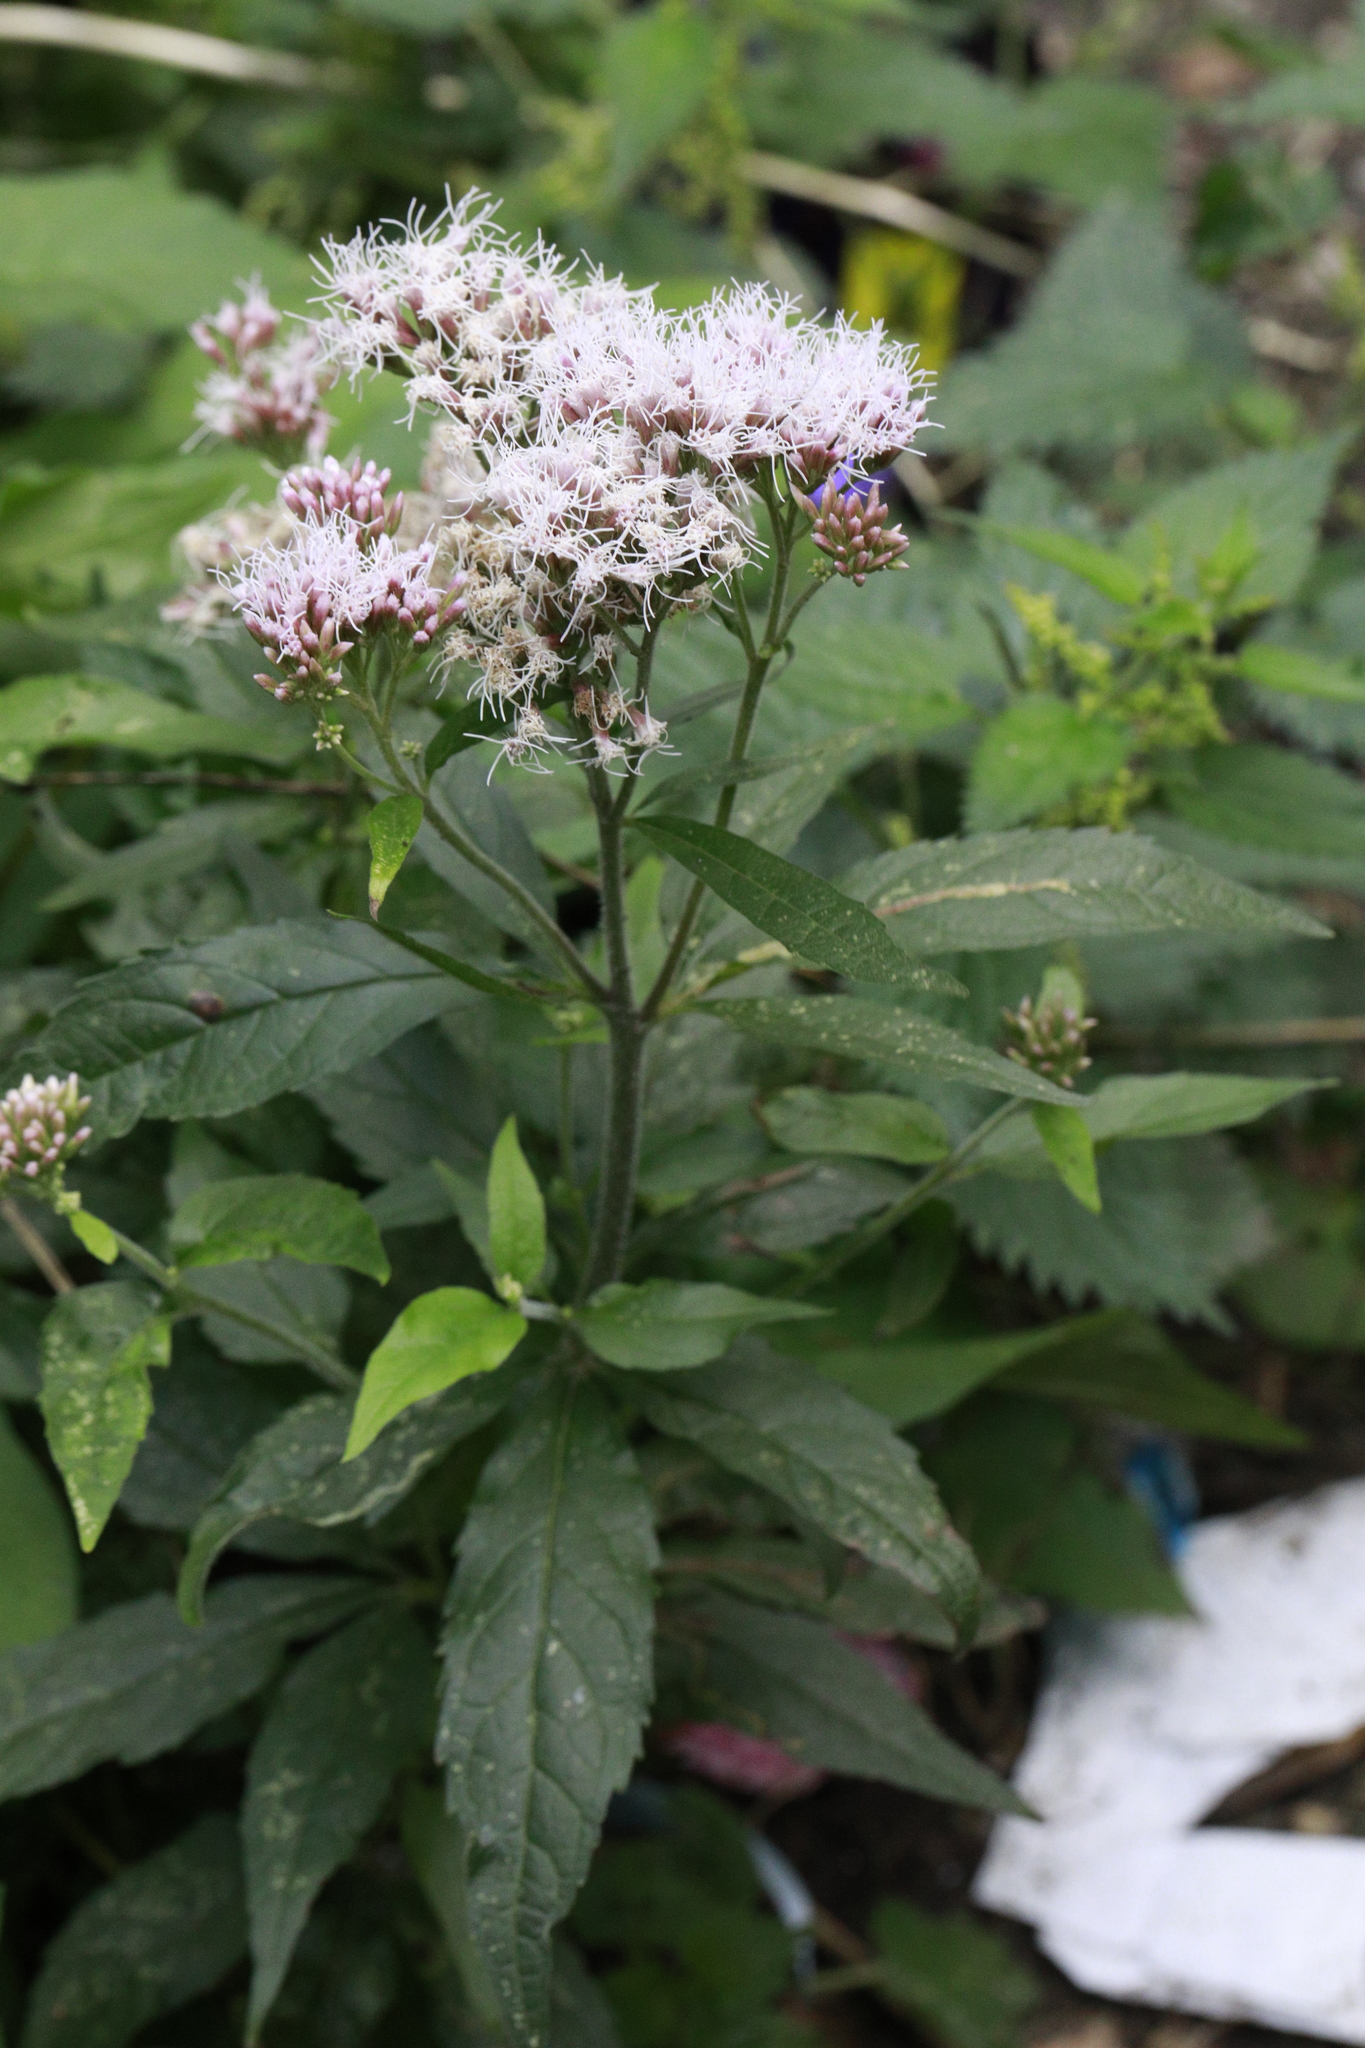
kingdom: Plantae
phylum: Tracheophyta
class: Magnoliopsida
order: Asterales
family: Asteraceae
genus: Eupatorium
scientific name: Eupatorium cannabinum
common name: Hemp-agrimony
